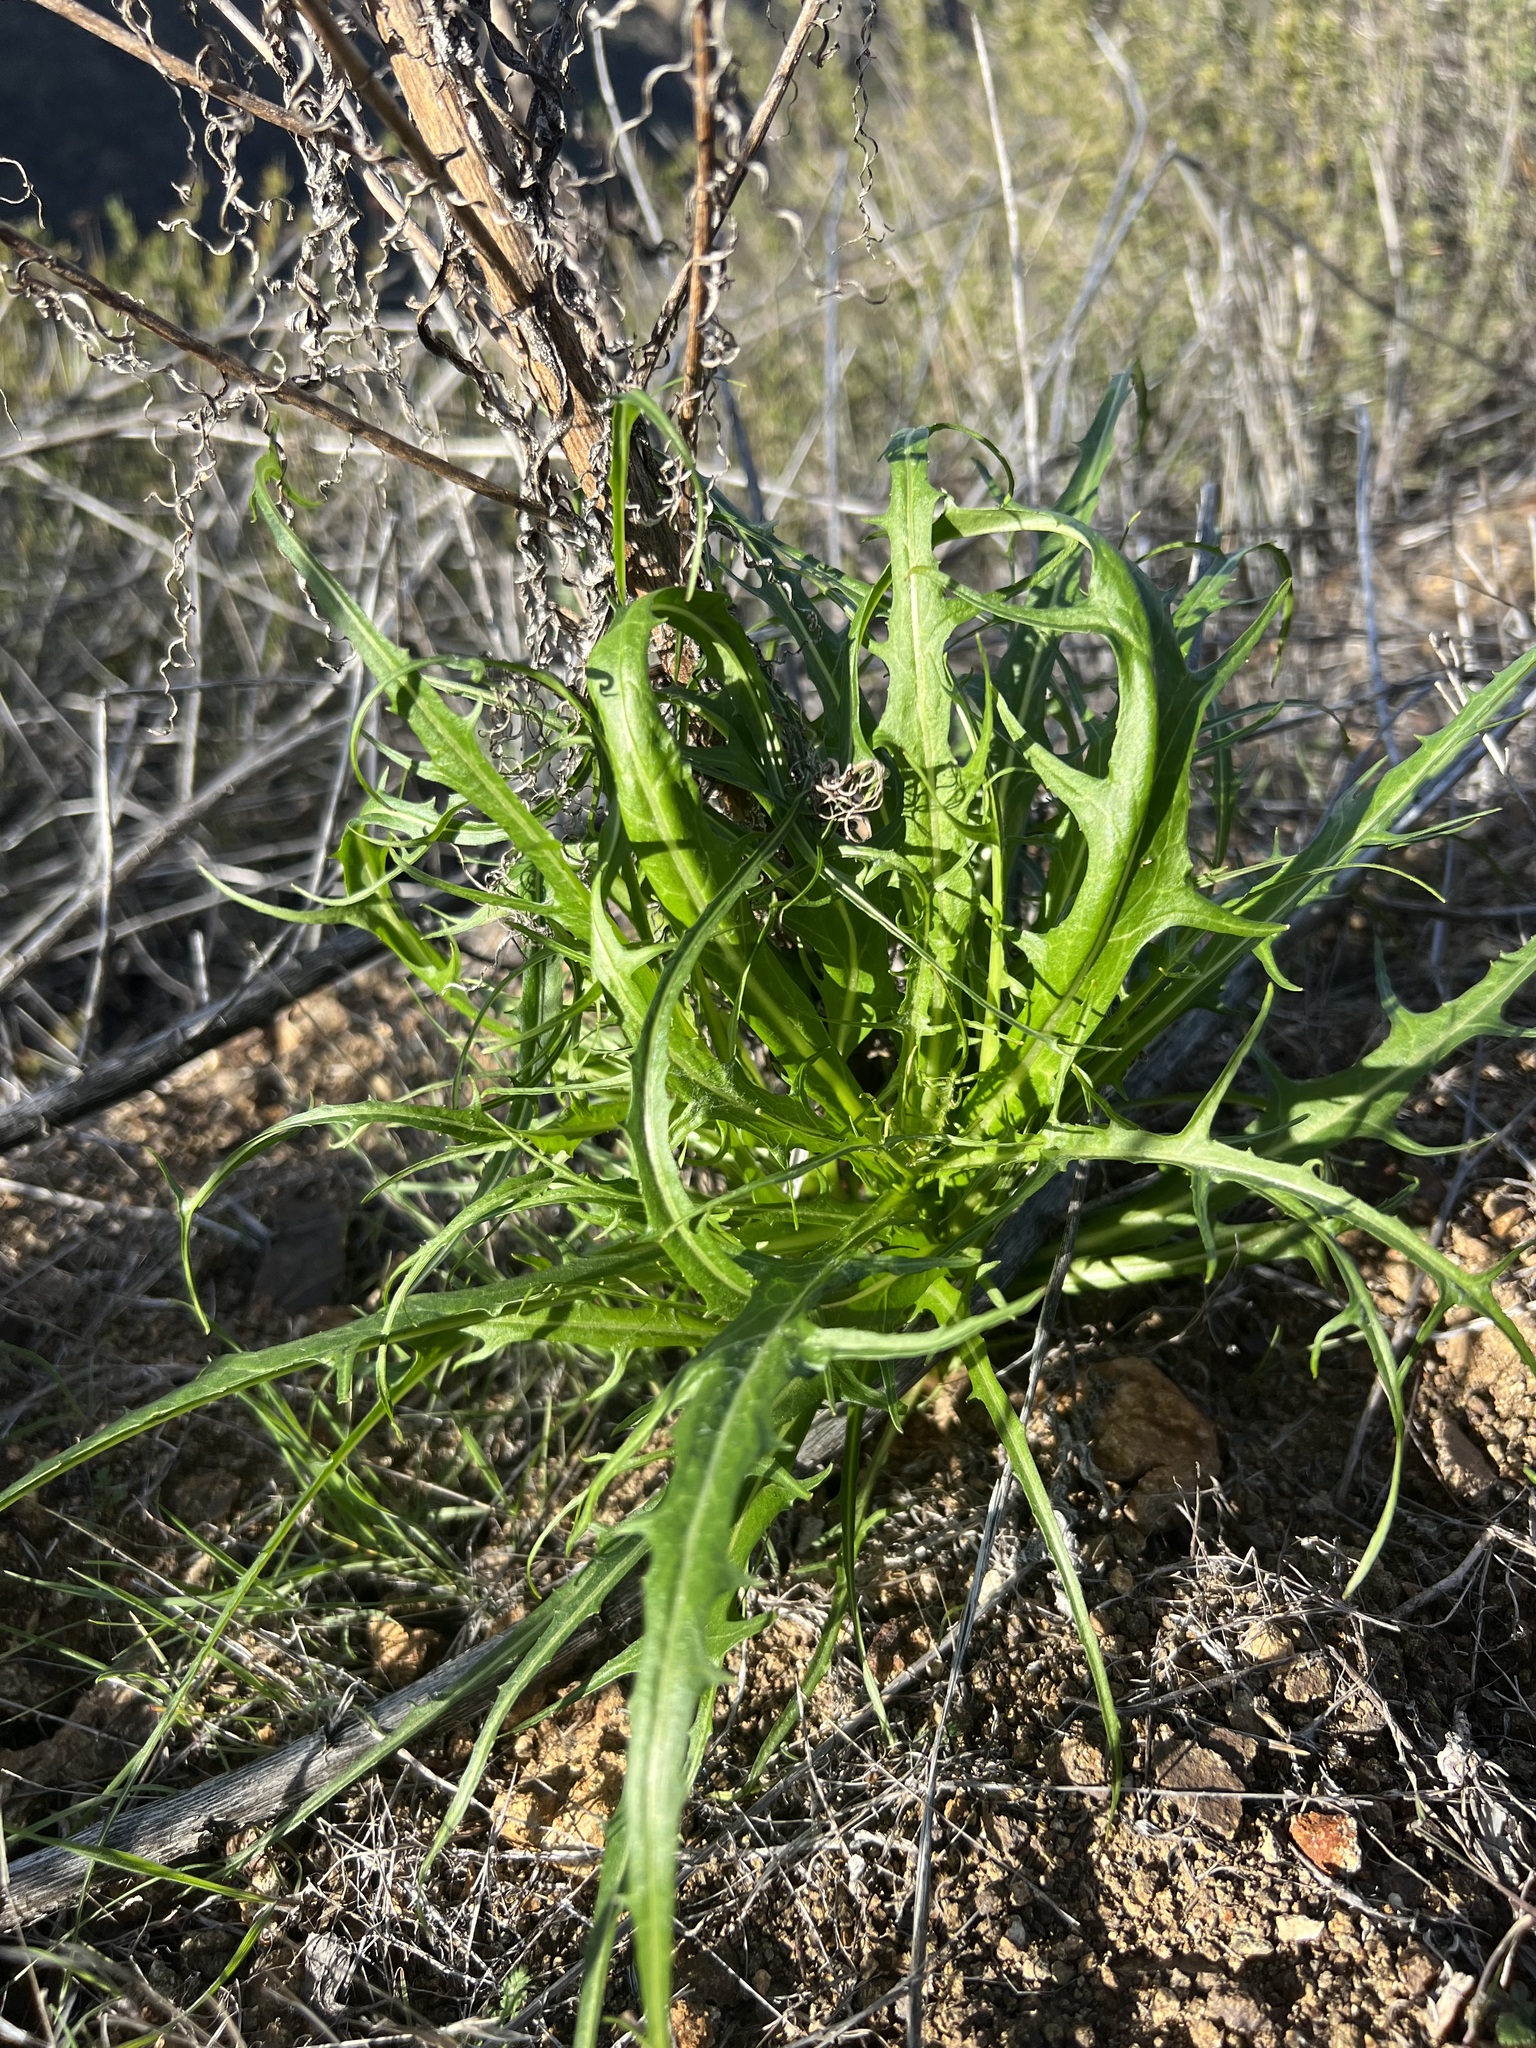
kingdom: Plantae
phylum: Tracheophyta
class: Magnoliopsida
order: Asterales
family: Asteraceae
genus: Malacothrix
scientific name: Malacothrix saxatilis
